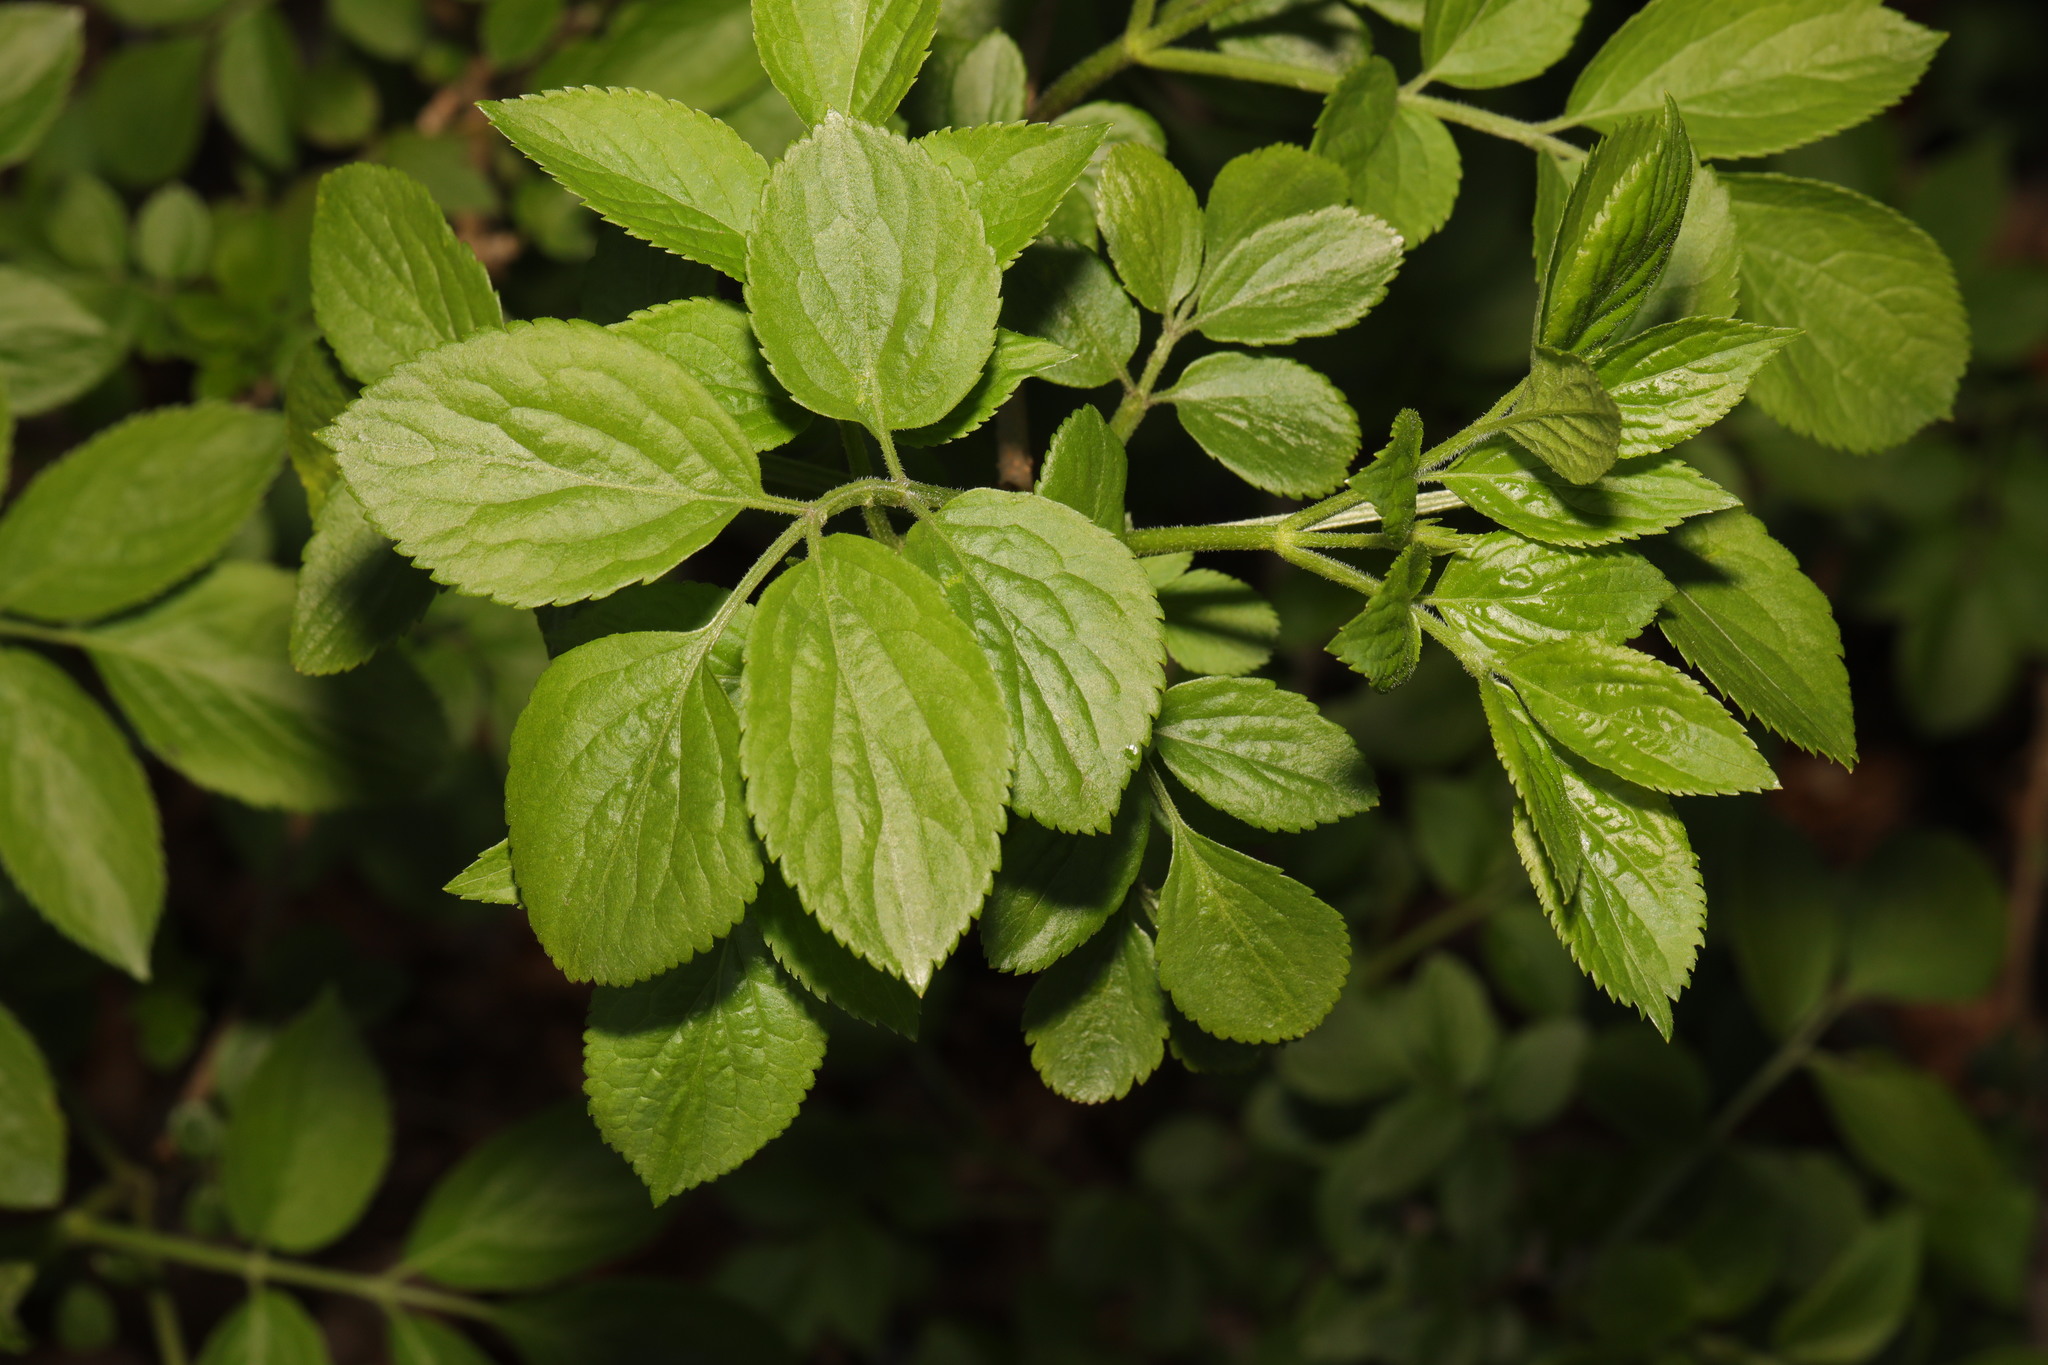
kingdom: Plantae
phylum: Tracheophyta
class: Magnoliopsida
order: Dipsacales
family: Viburnaceae
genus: Sambucus
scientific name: Sambucus nigra
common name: Elder
